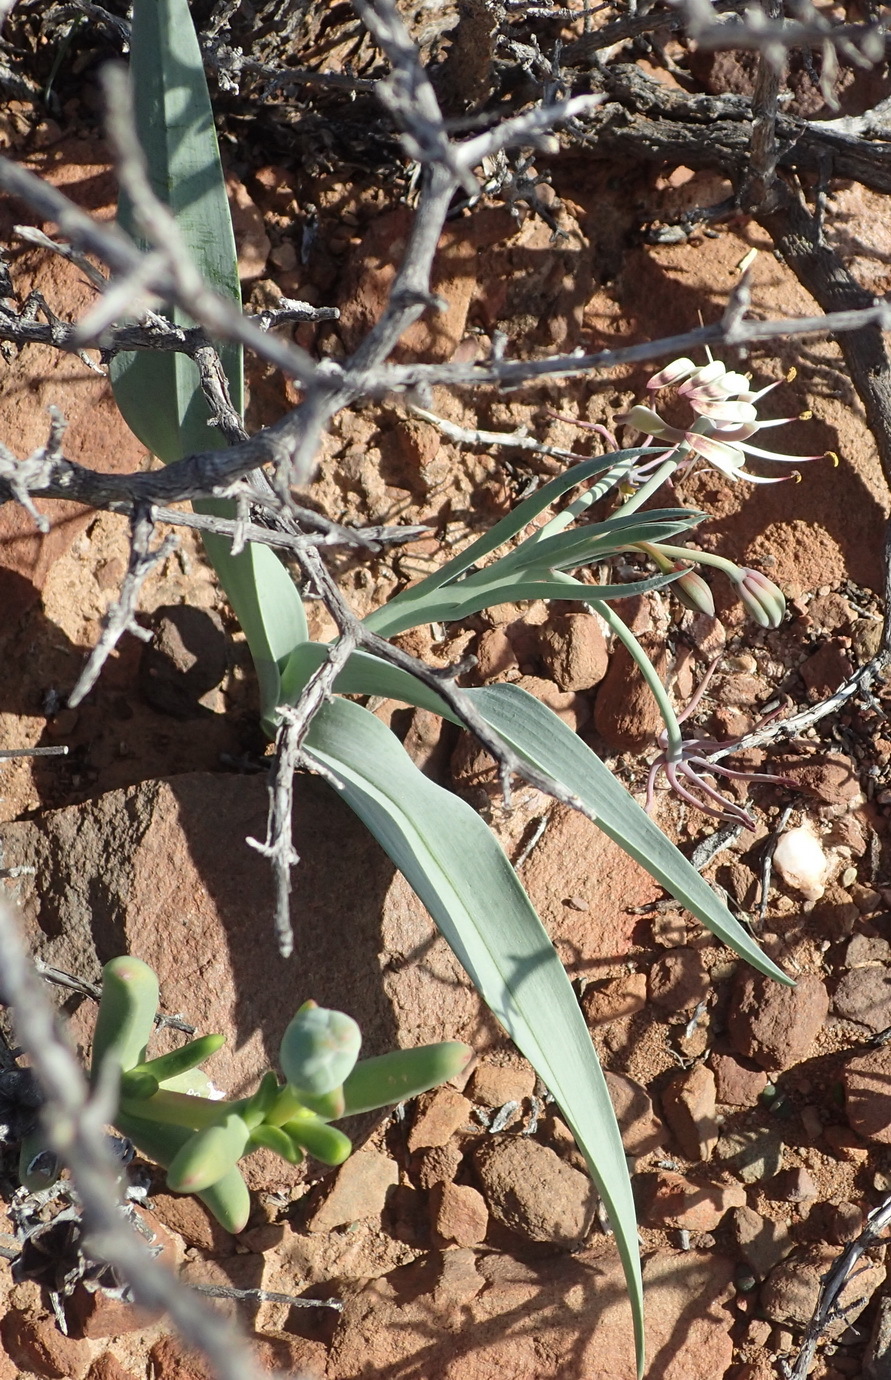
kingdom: Plantae
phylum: Tracheophyta
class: Liliopsida
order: Liliales
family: Colchicaceae
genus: Ornithoglossum
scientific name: Ornithoglossum undulatum
